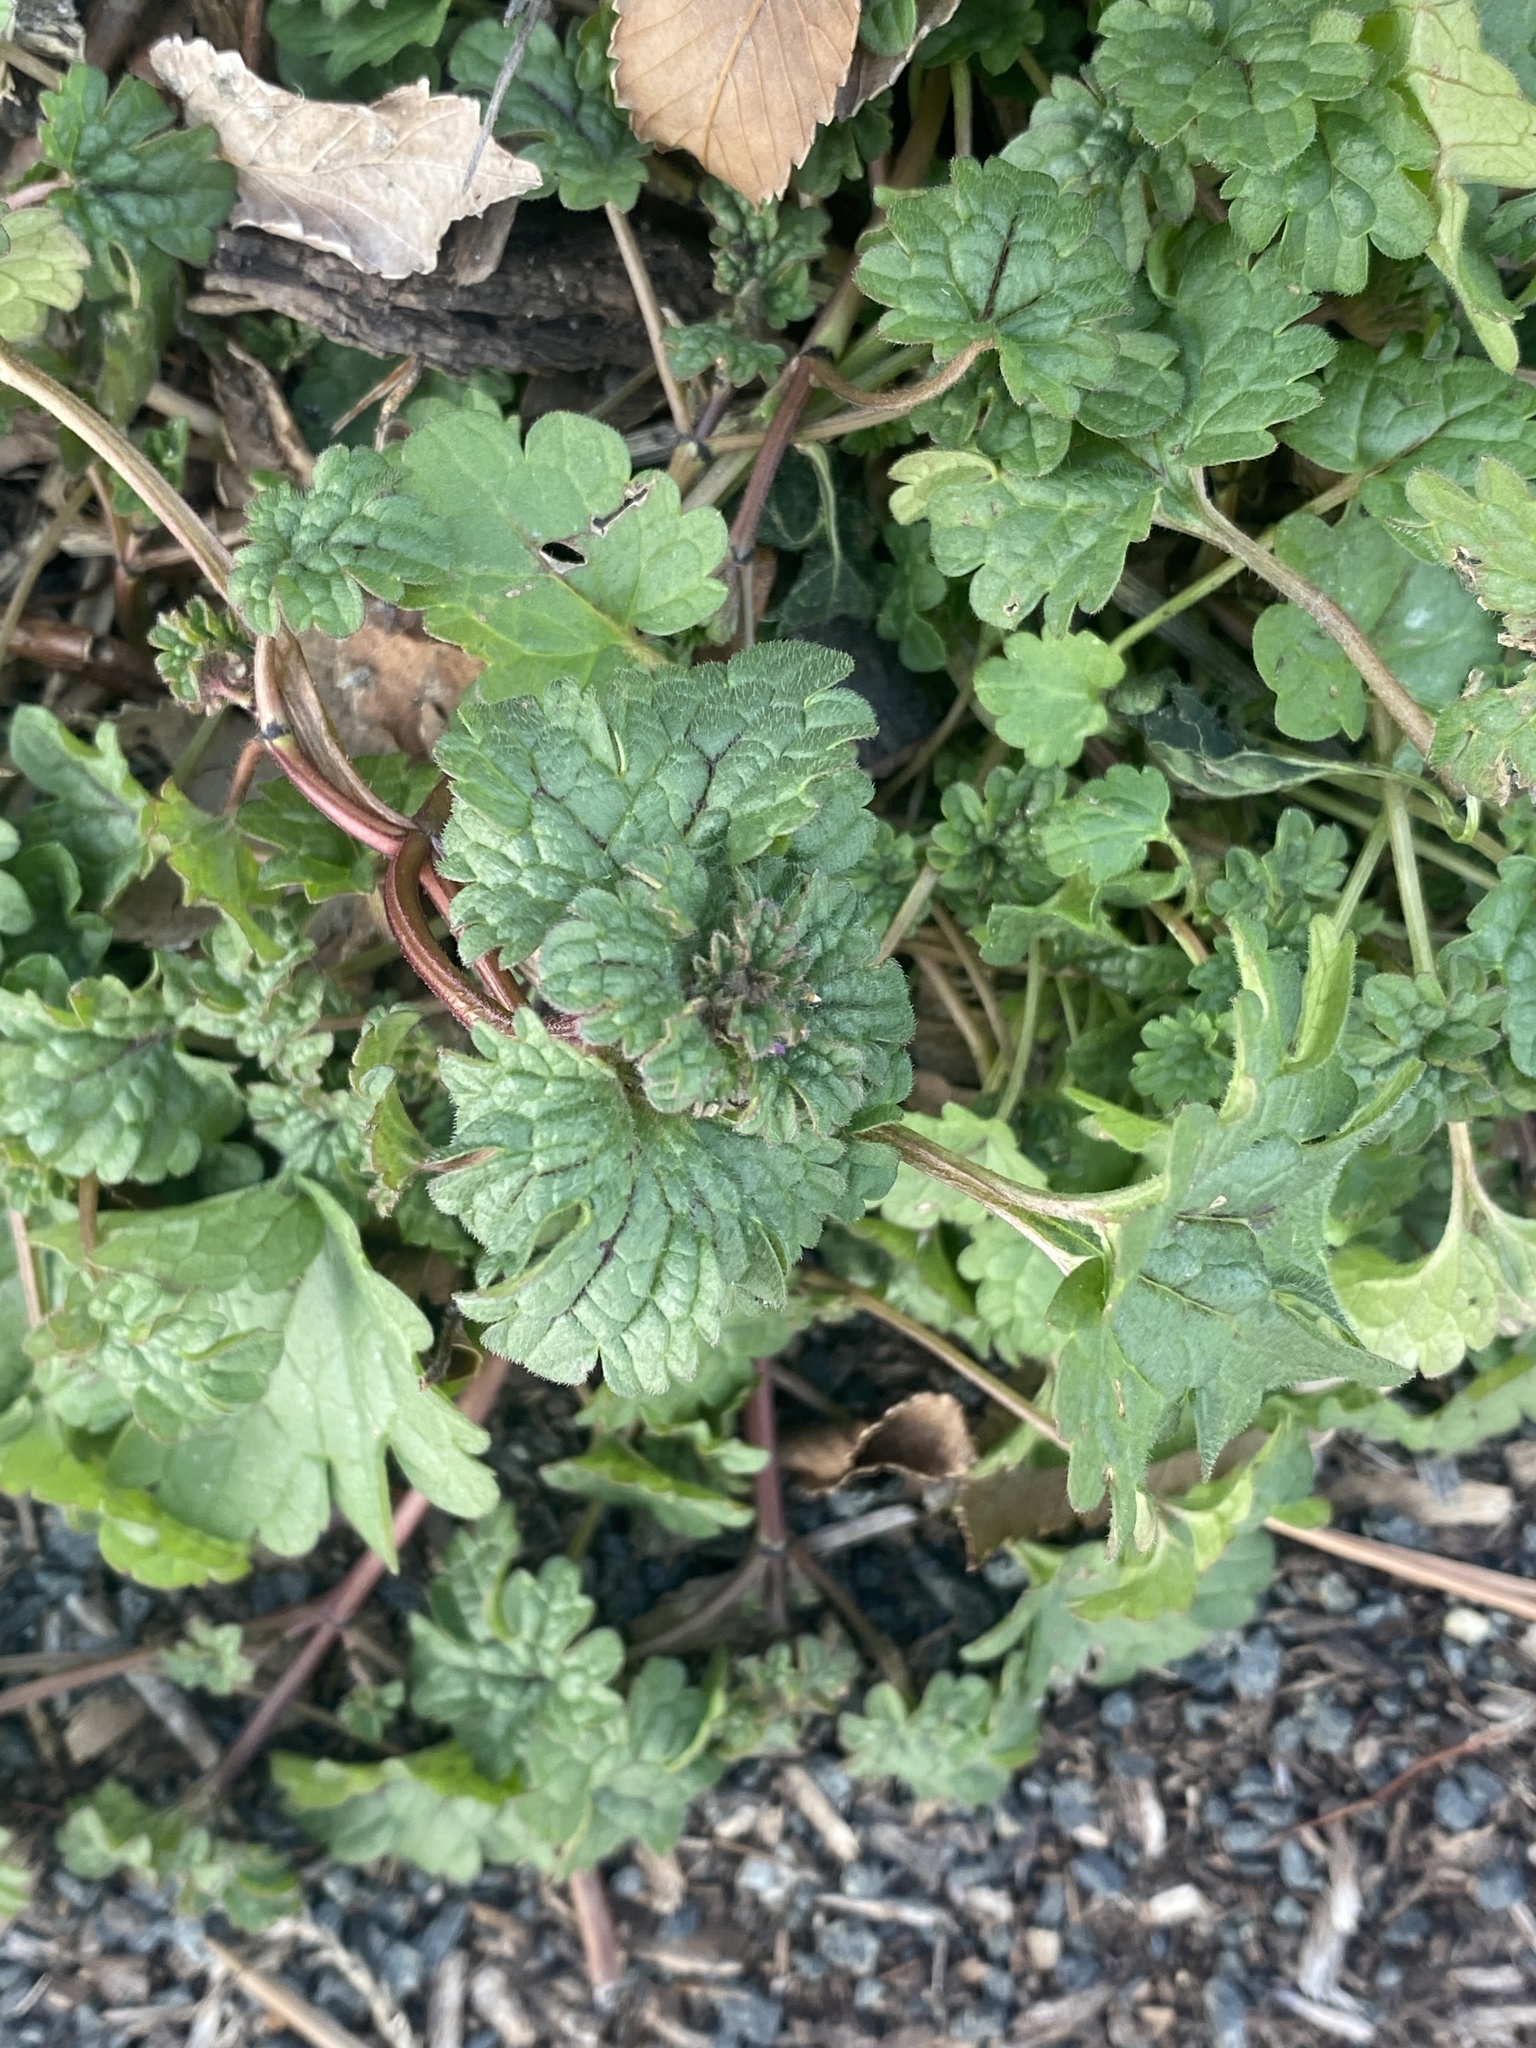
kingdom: Plantae
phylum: Tracheophyta
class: Magnoliopsida
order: Lamiales
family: Lamiaceae
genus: Lamium
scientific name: Lamium amplexicaule
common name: Henbit dead-nettle
